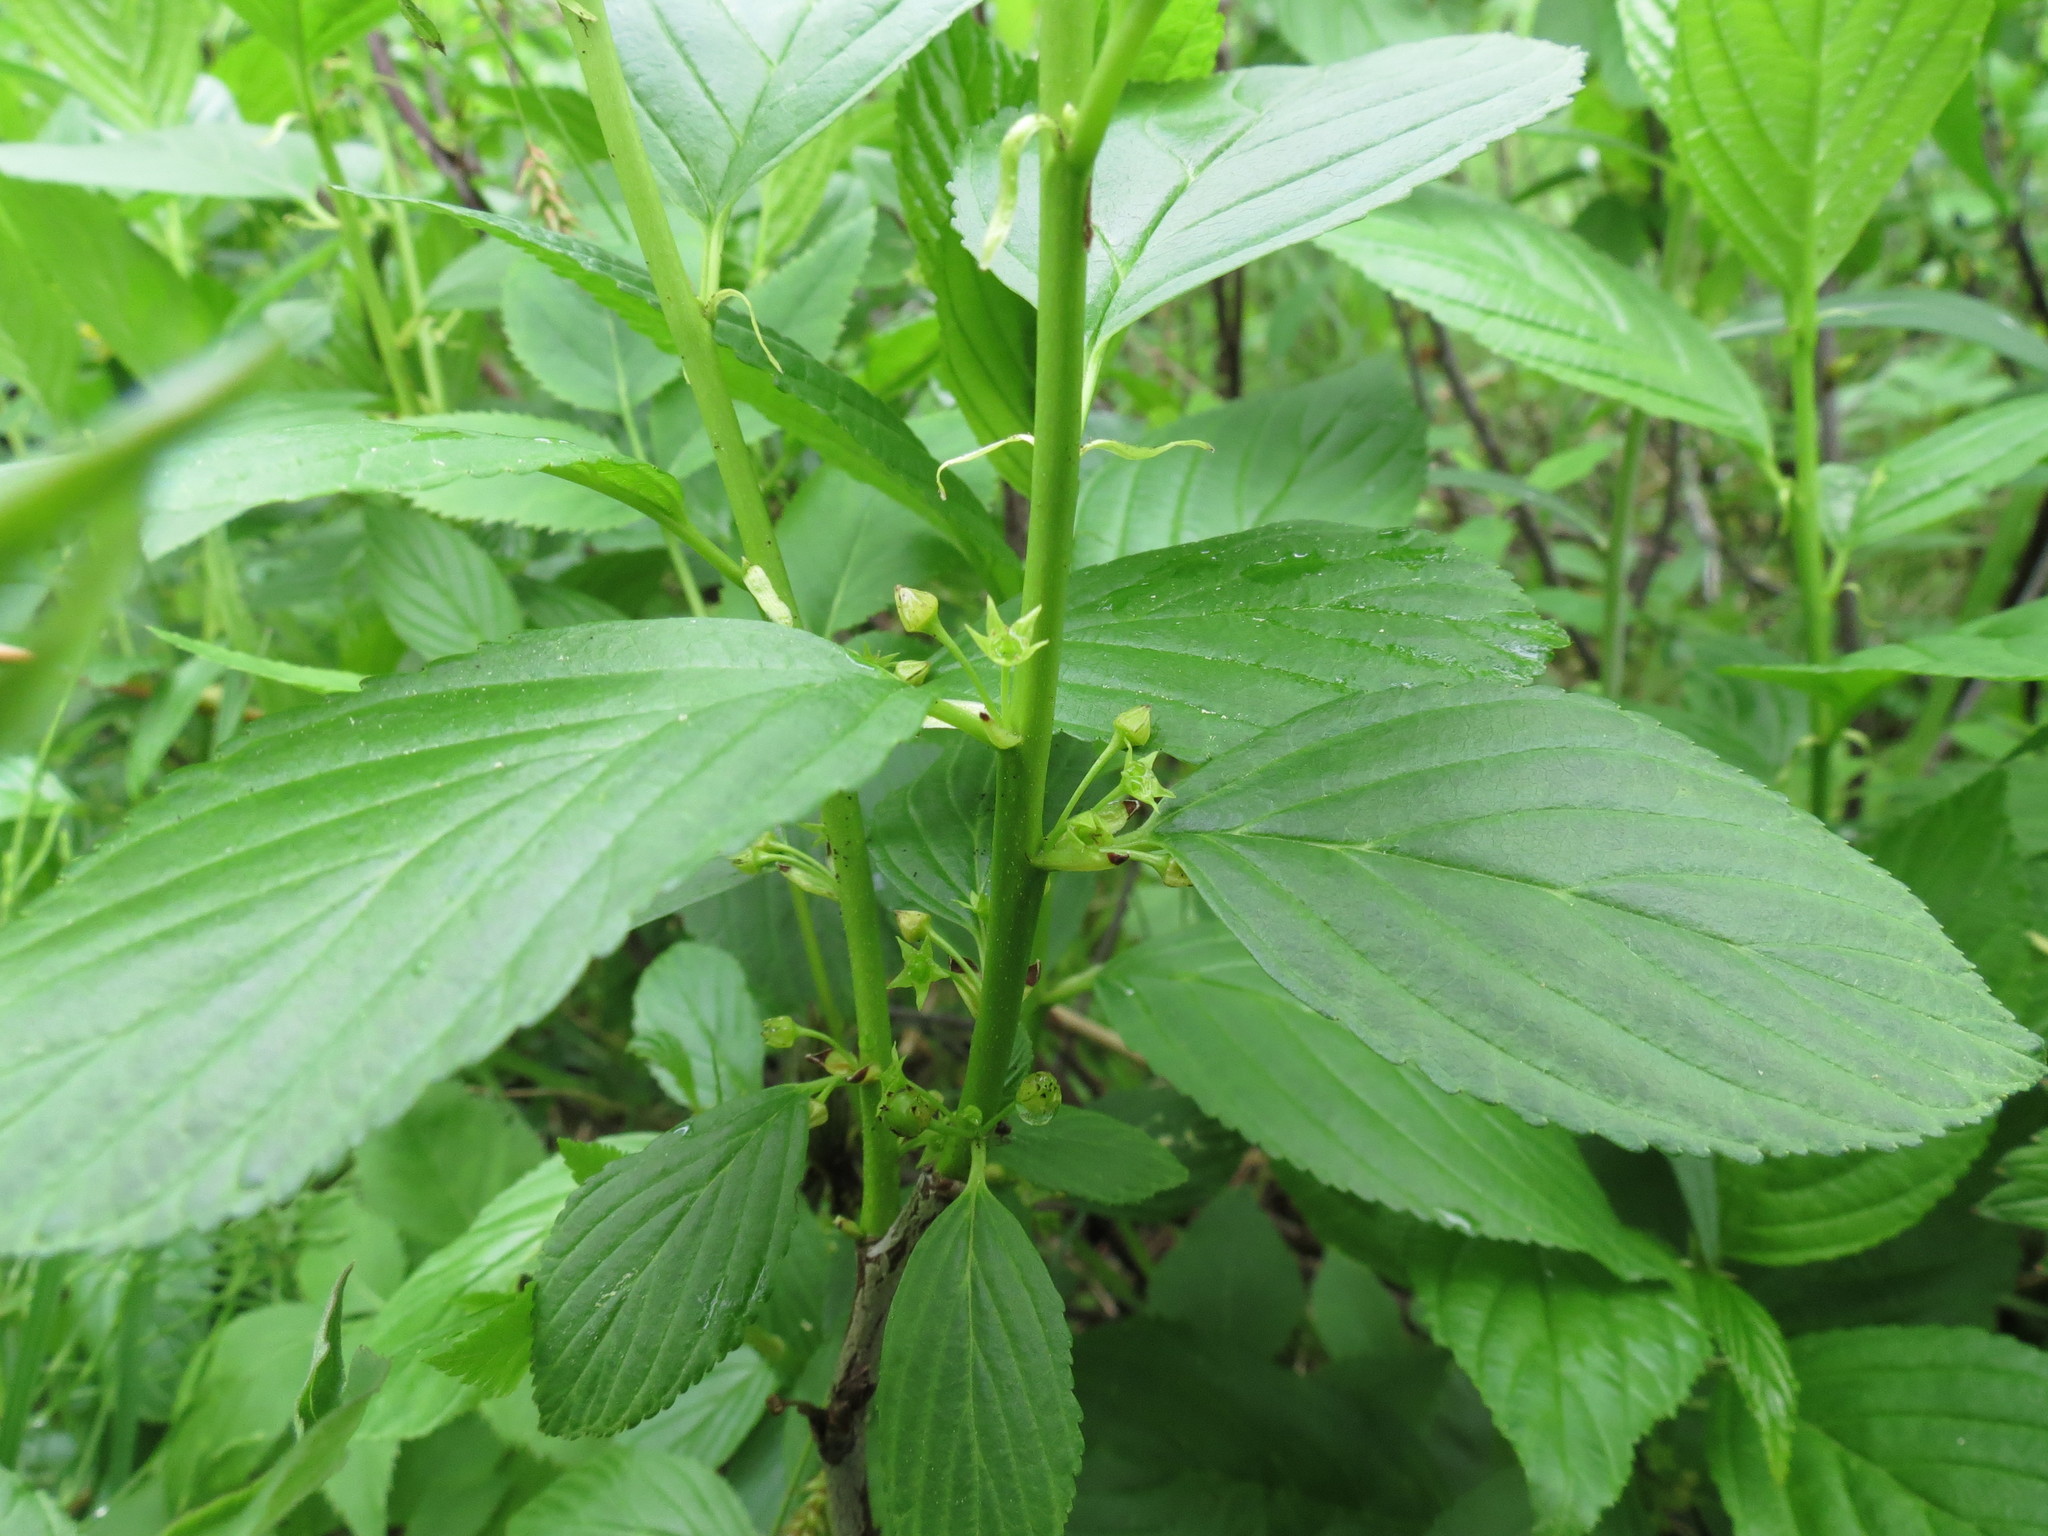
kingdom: Plantae
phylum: Tracheophyta
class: Magnoliopsida
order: Rosales
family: Rhamnaceae
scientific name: Rhamnaceae
